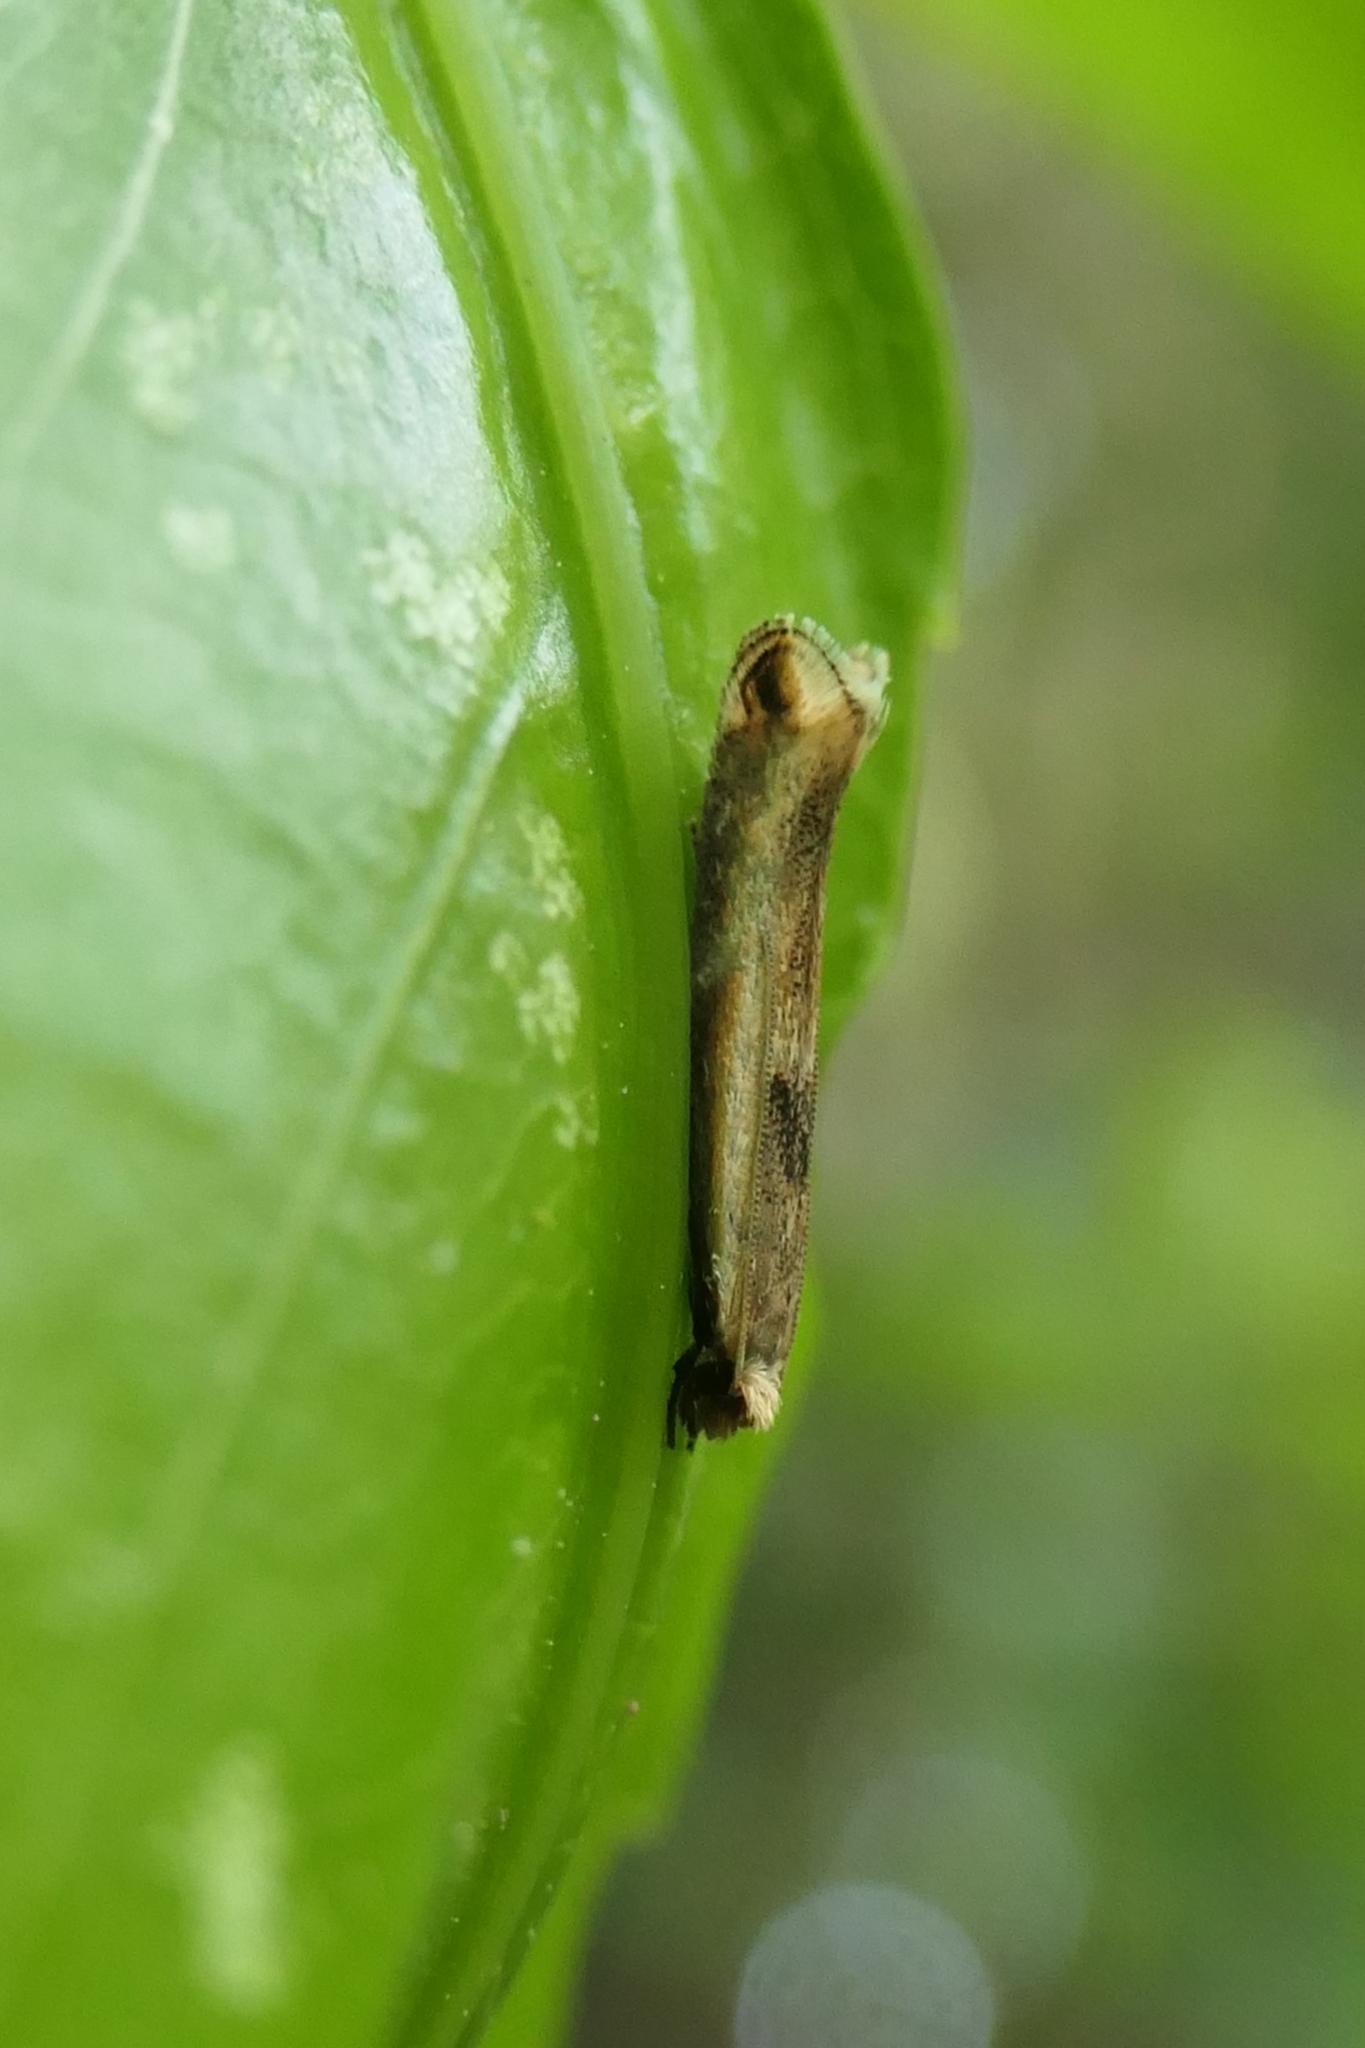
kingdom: Animalia
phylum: Arthropoda
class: Insecta
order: Lepidoptera
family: Tineidae
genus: Erechthias
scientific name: Erechthias charadrota
